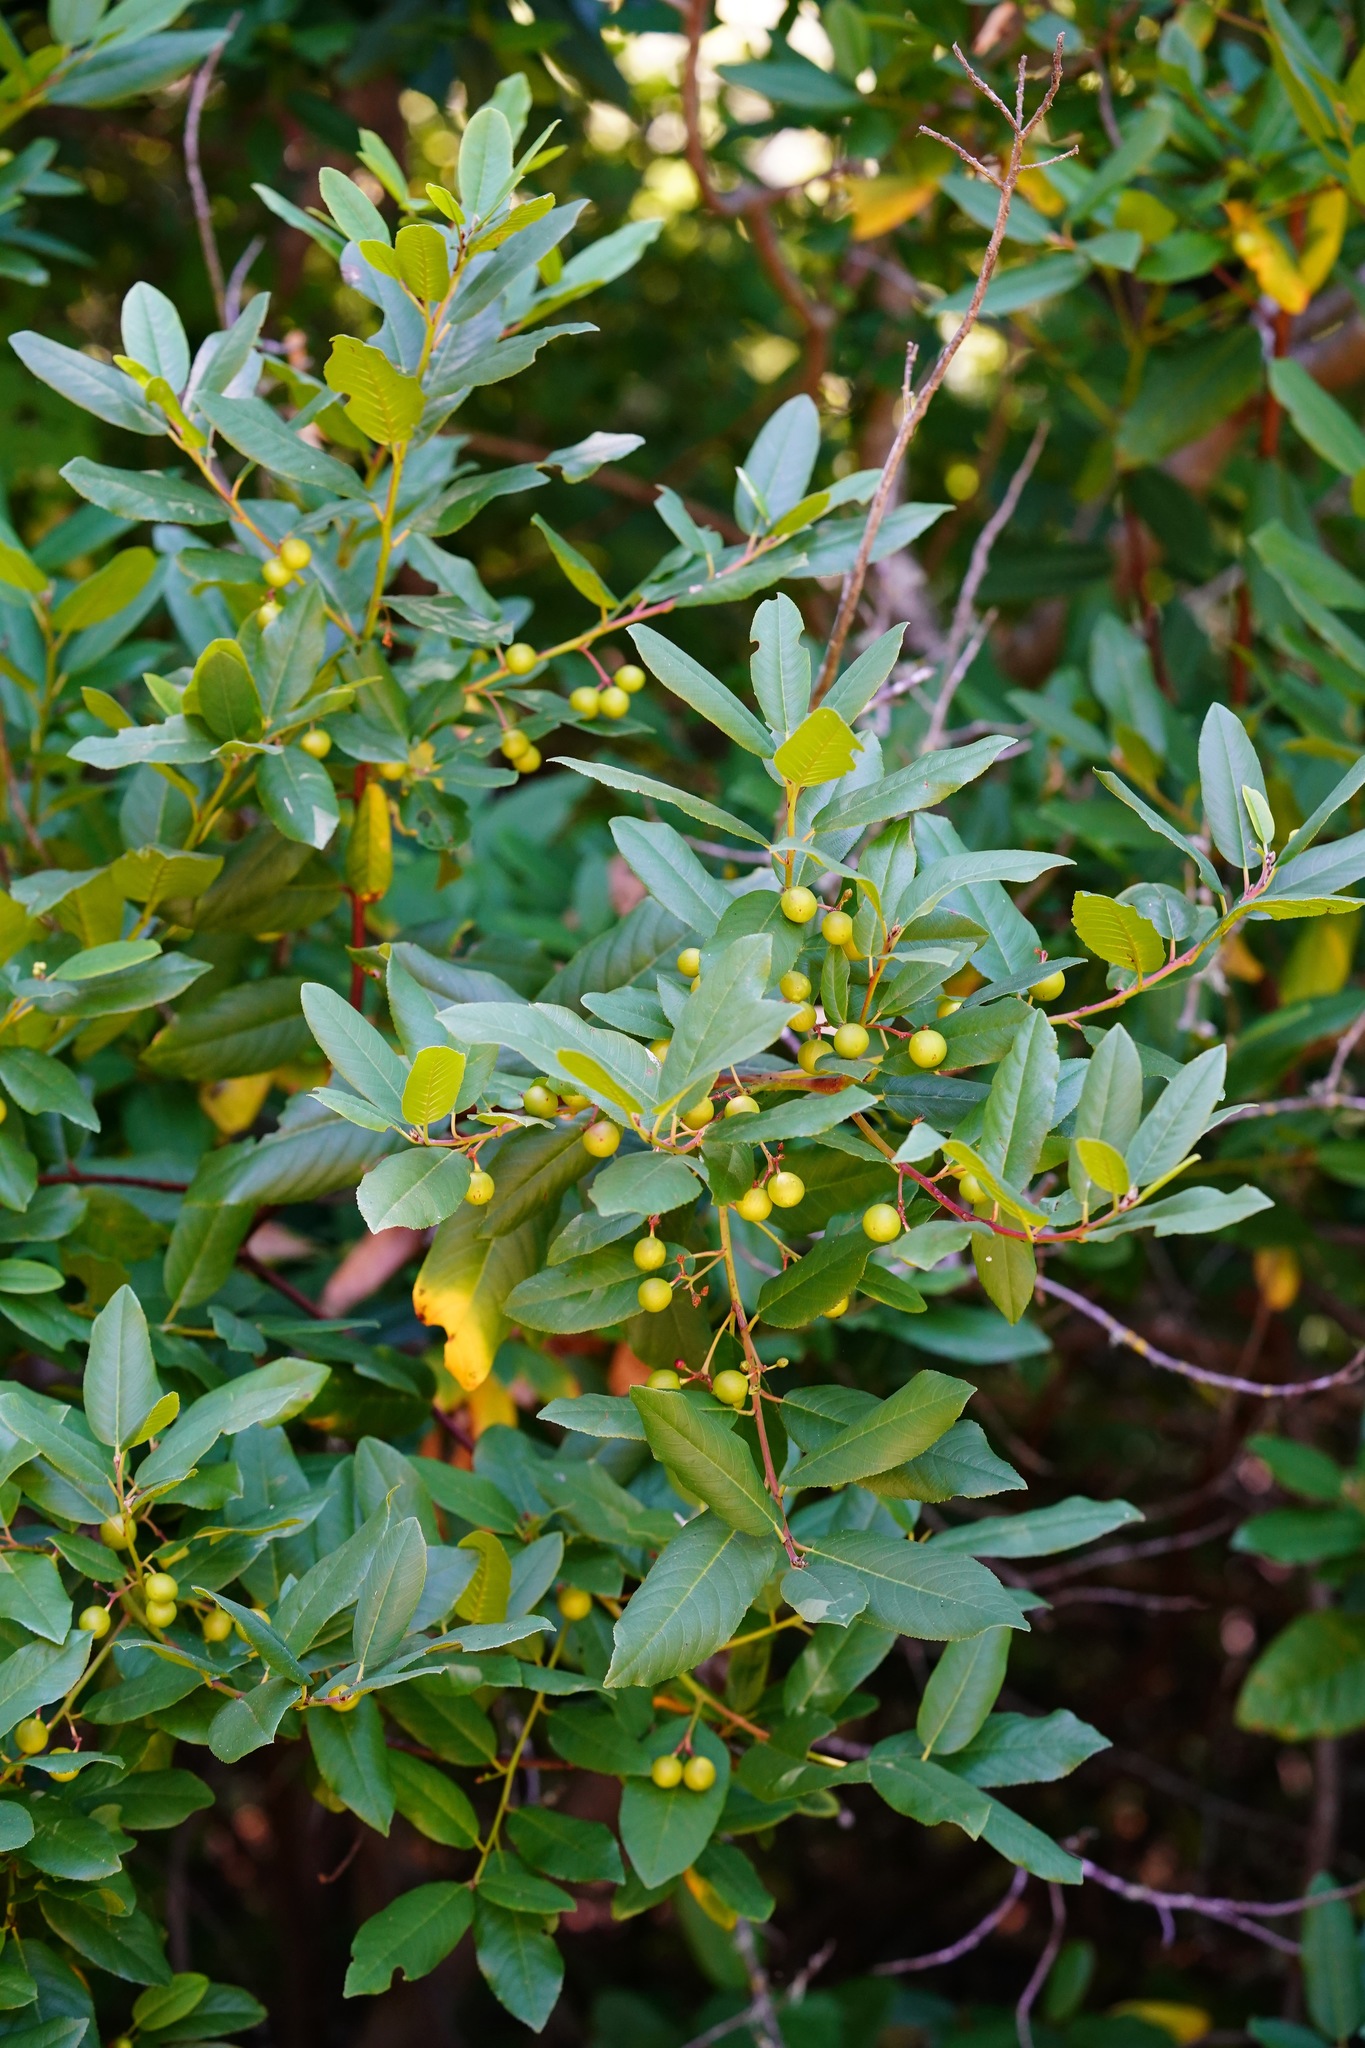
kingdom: Plantae
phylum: Tracheophyta
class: Magnoliopsida
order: Rosales
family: Rhamnaceae
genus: Frangula
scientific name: Frangula californica
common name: California buckthorn
